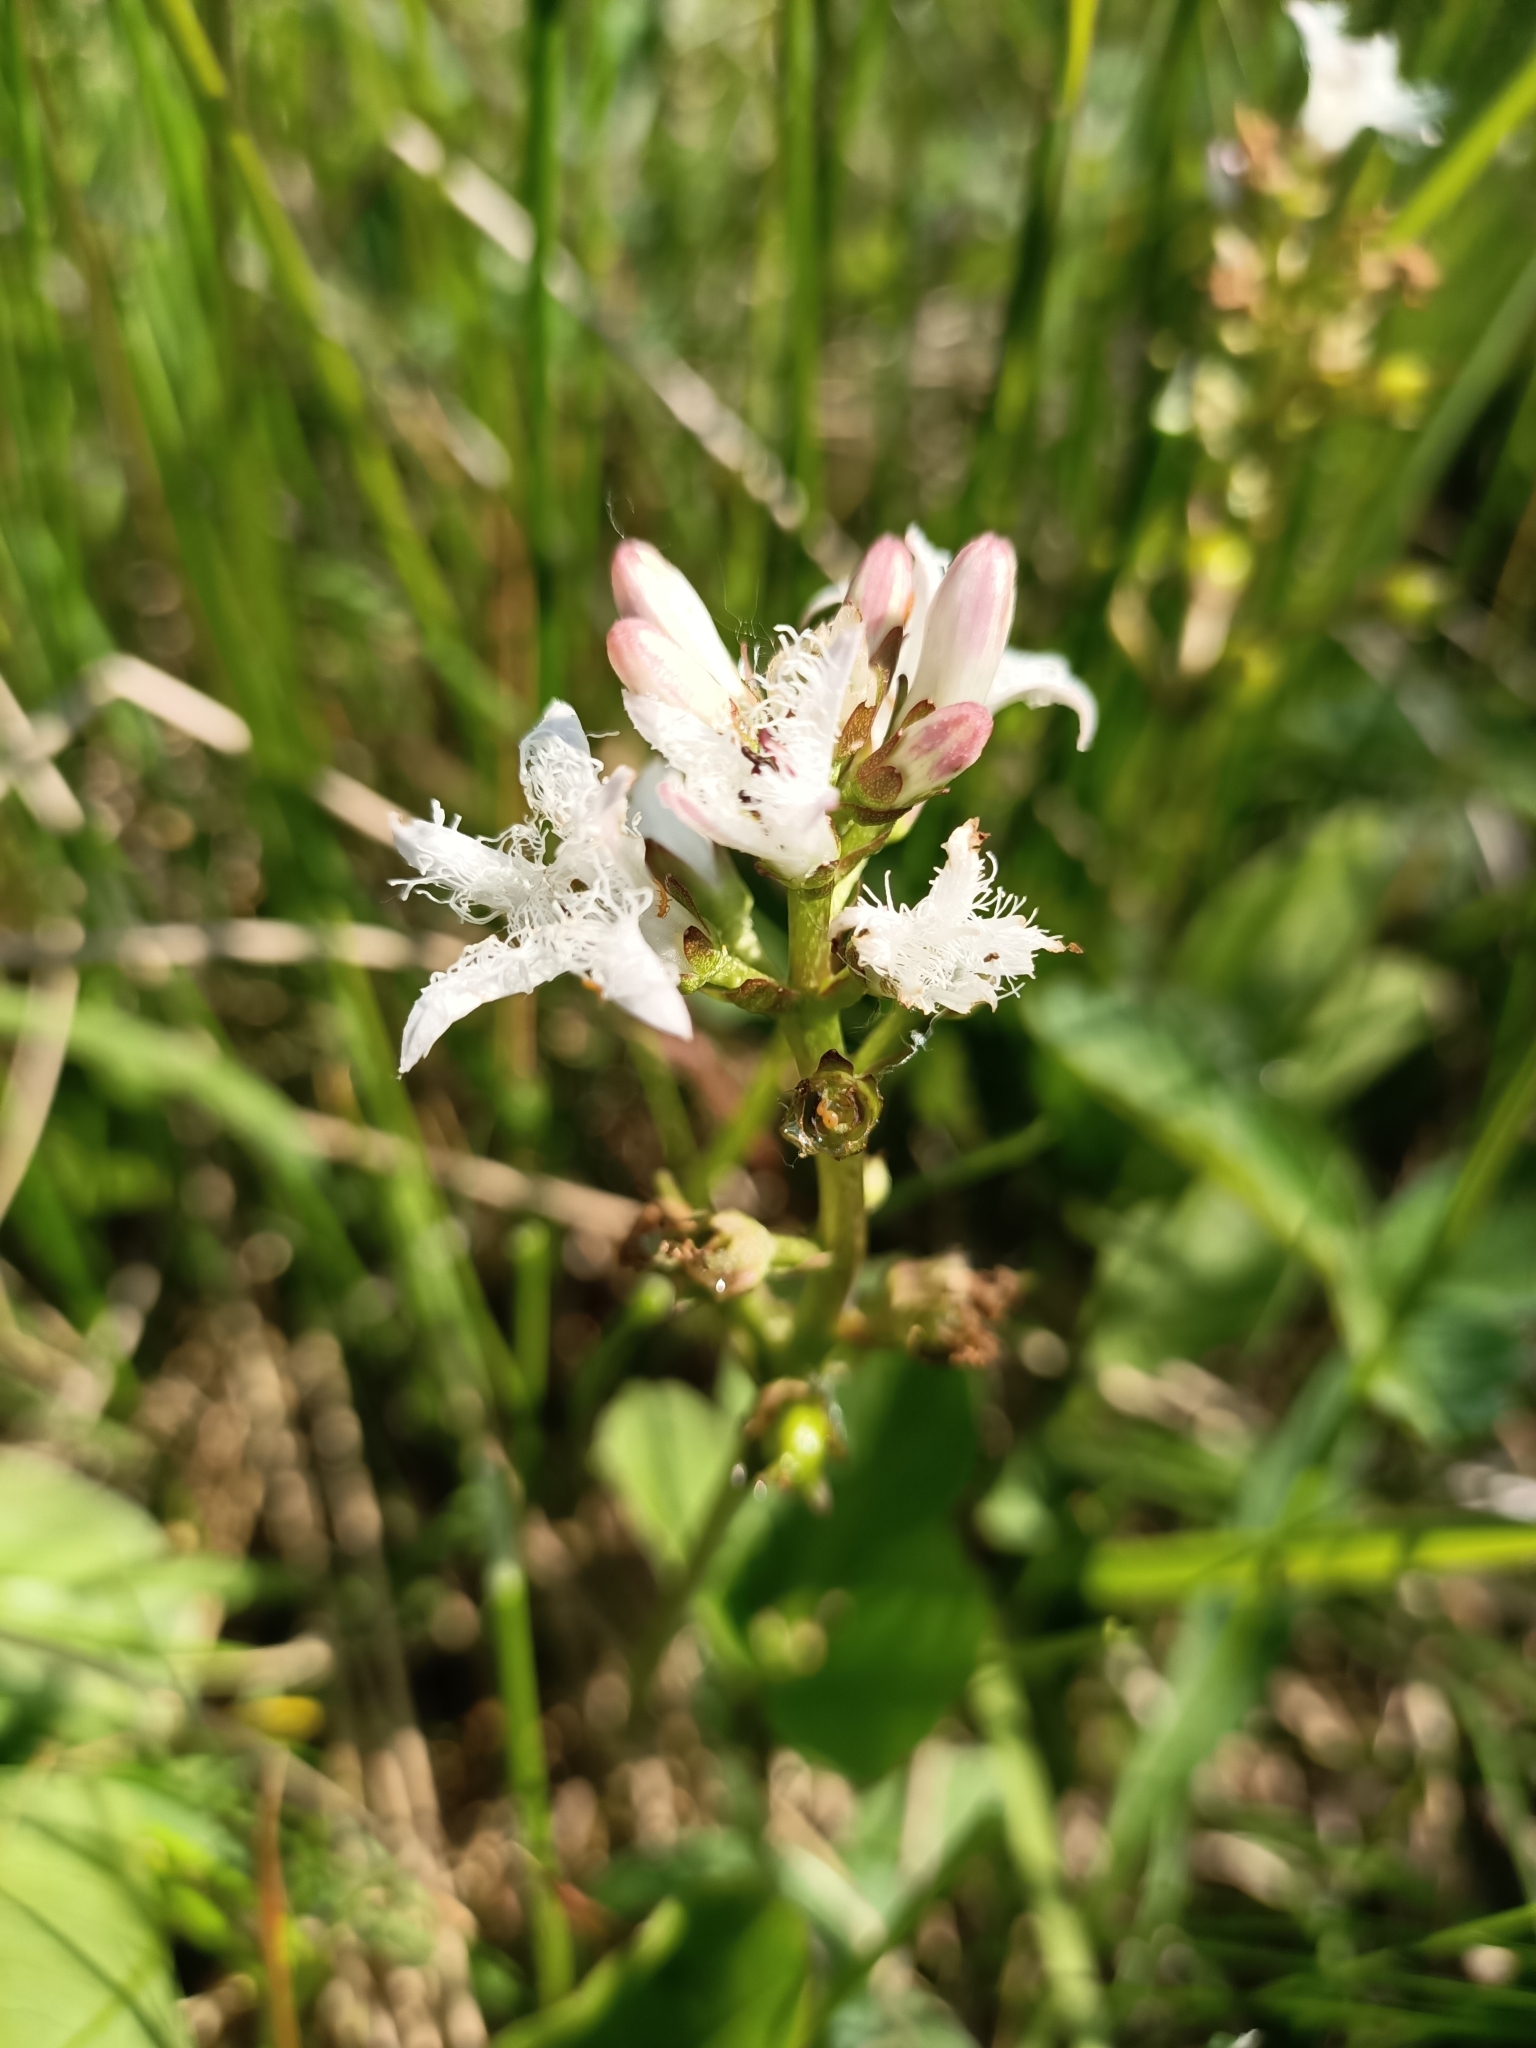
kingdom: Plantae
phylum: Tracheophyta
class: Magnoliopsida
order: Asterales
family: Menyanthaceae
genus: Menyanthes
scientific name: Menyanthes trifoliata
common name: Bogbean
